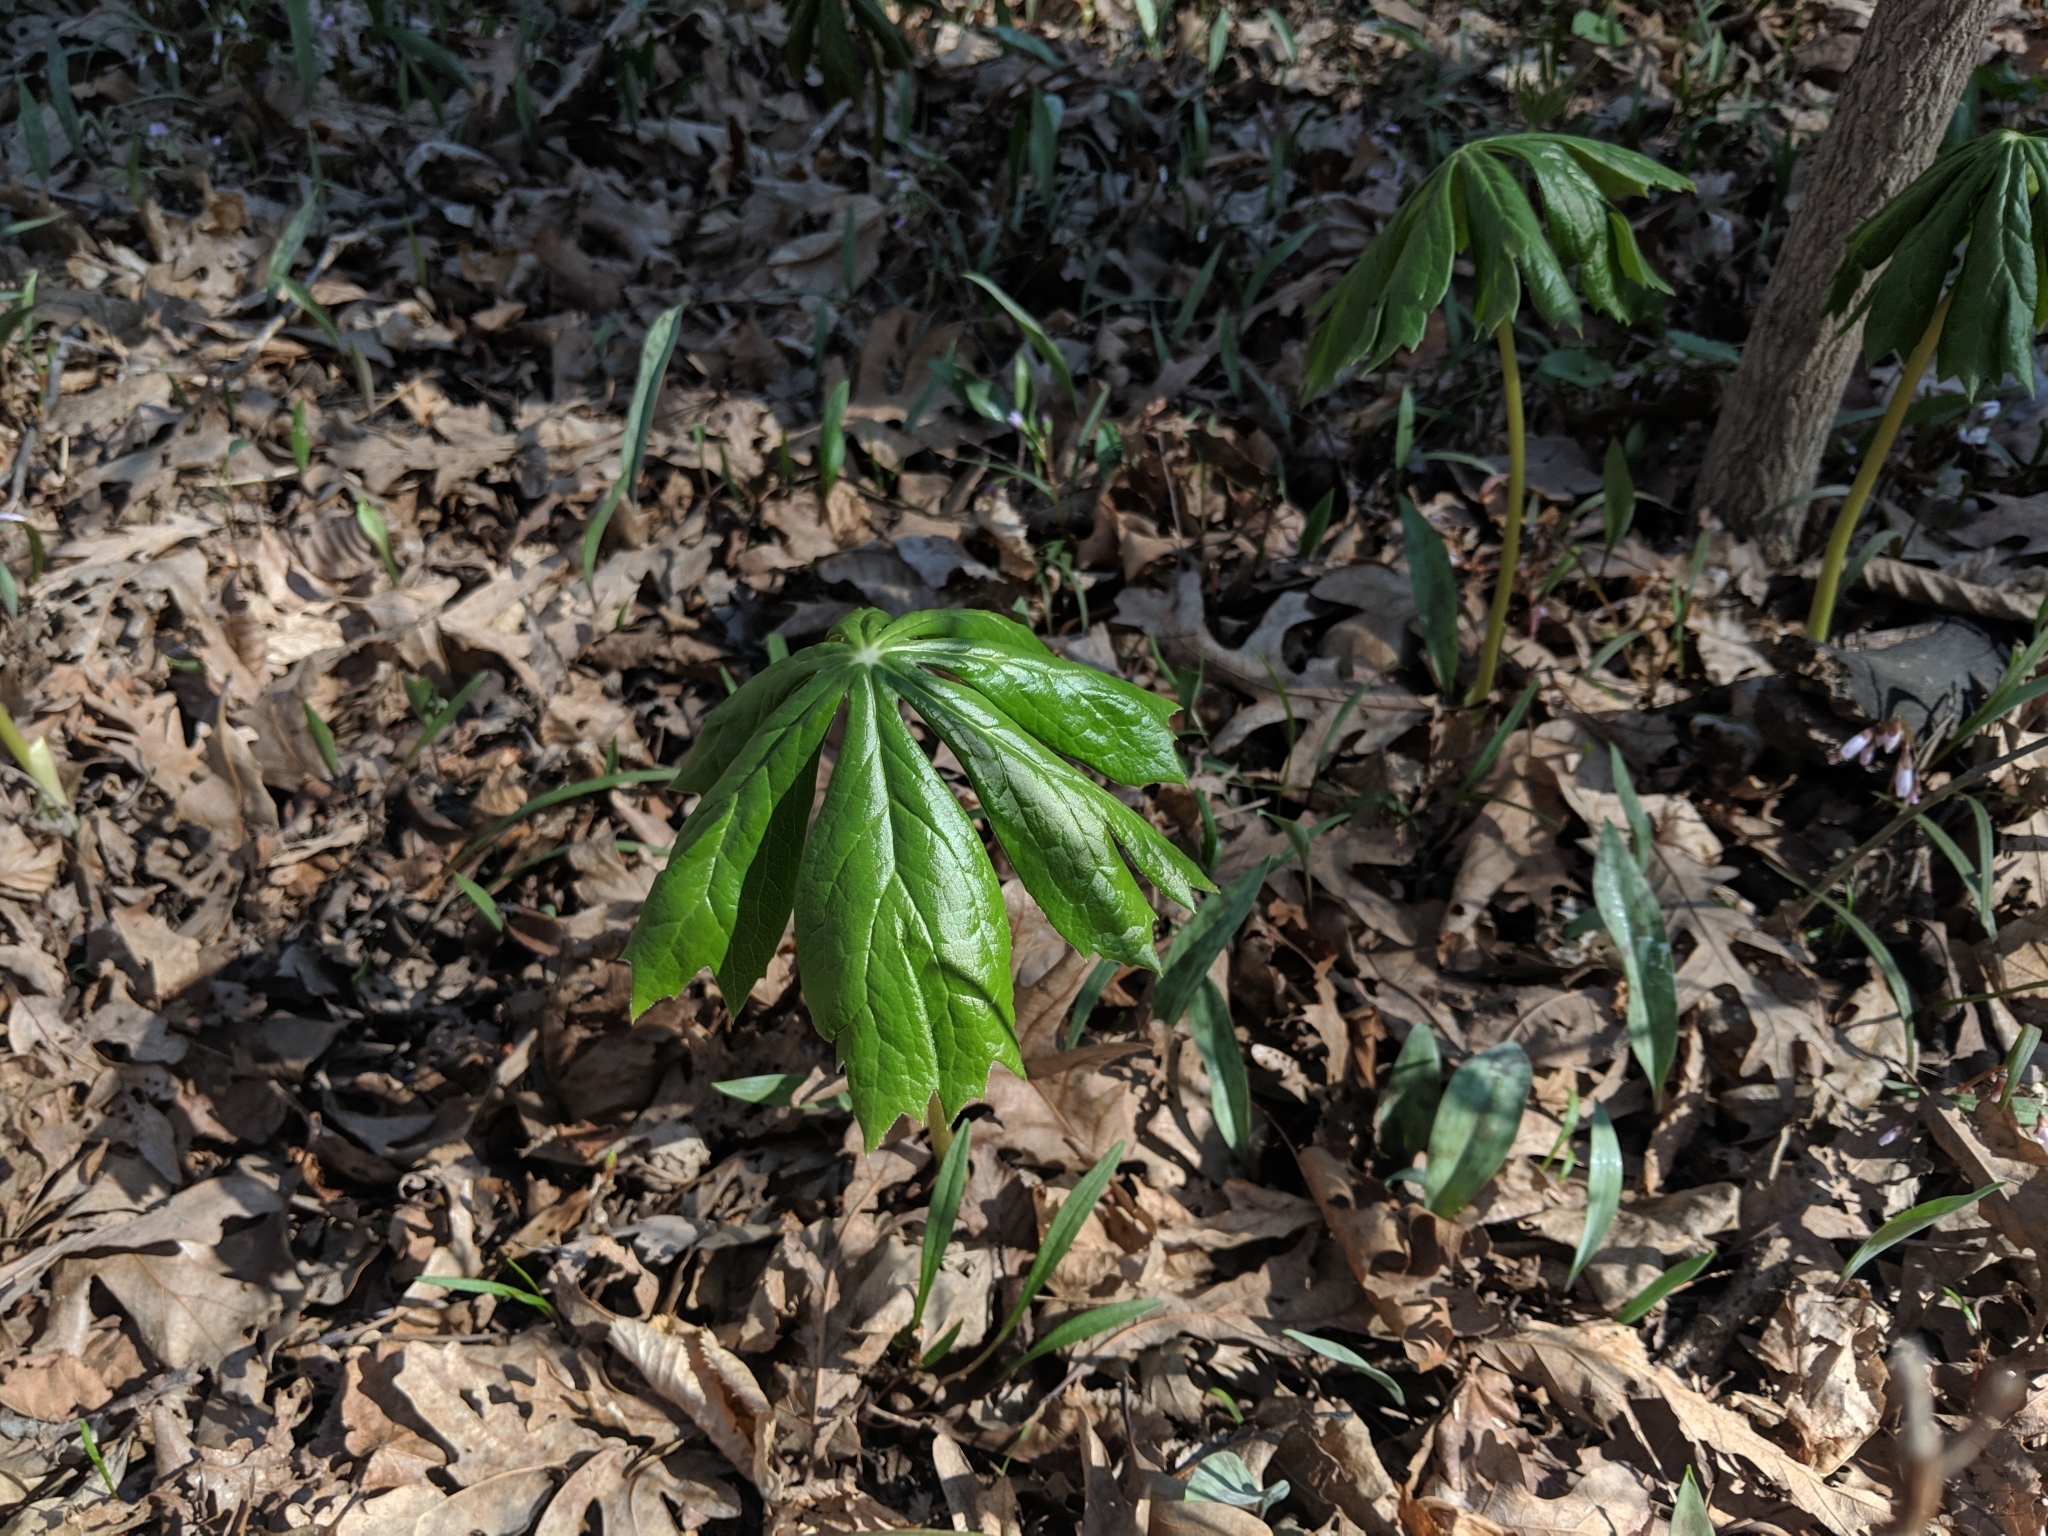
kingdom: Plantae
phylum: Tracheophyta
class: Magnoliopsida
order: Ranunculales
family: Berberidaceae
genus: Podophyllum
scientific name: Podophyllum peltatum
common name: Wild mandrake
